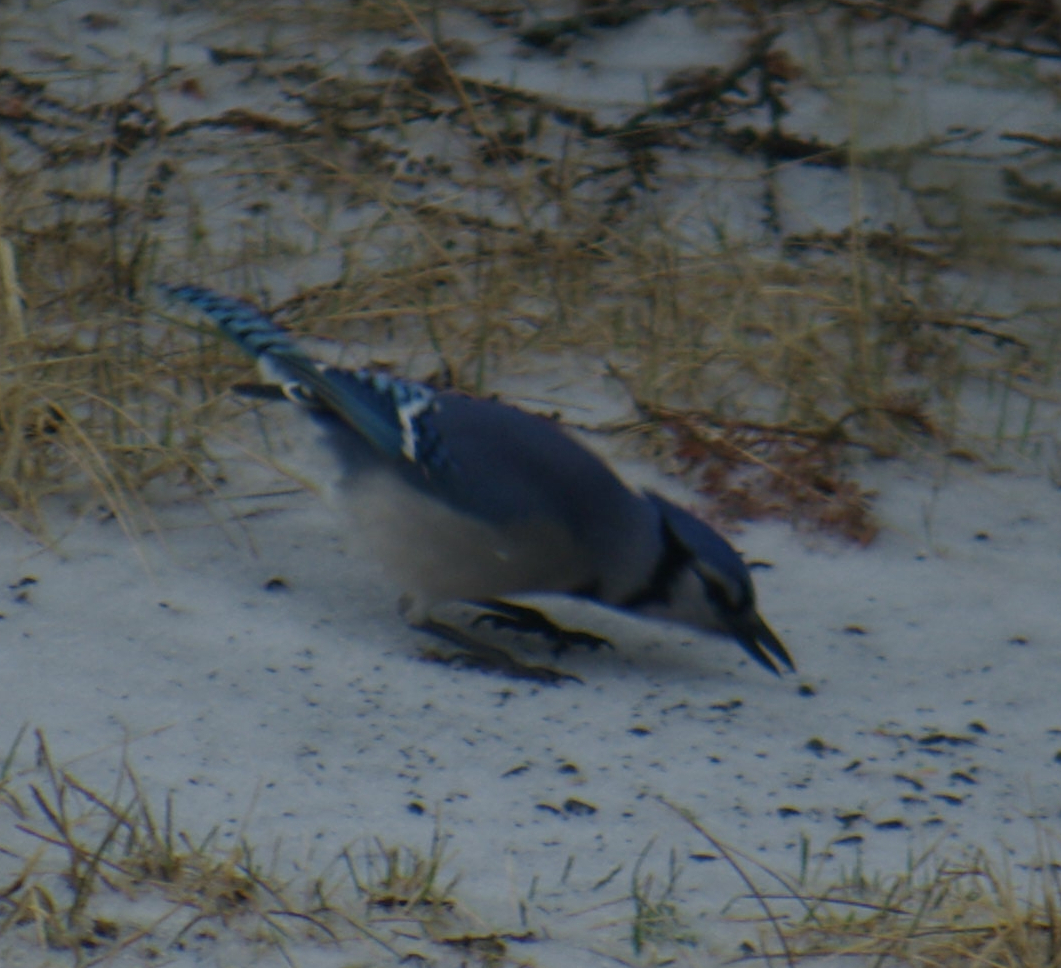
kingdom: Animalia
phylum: Chordata
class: Aves
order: Passeriformes
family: Corvidae
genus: Cyanocitta
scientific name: Cyanocitta cristata
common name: Blue jay
